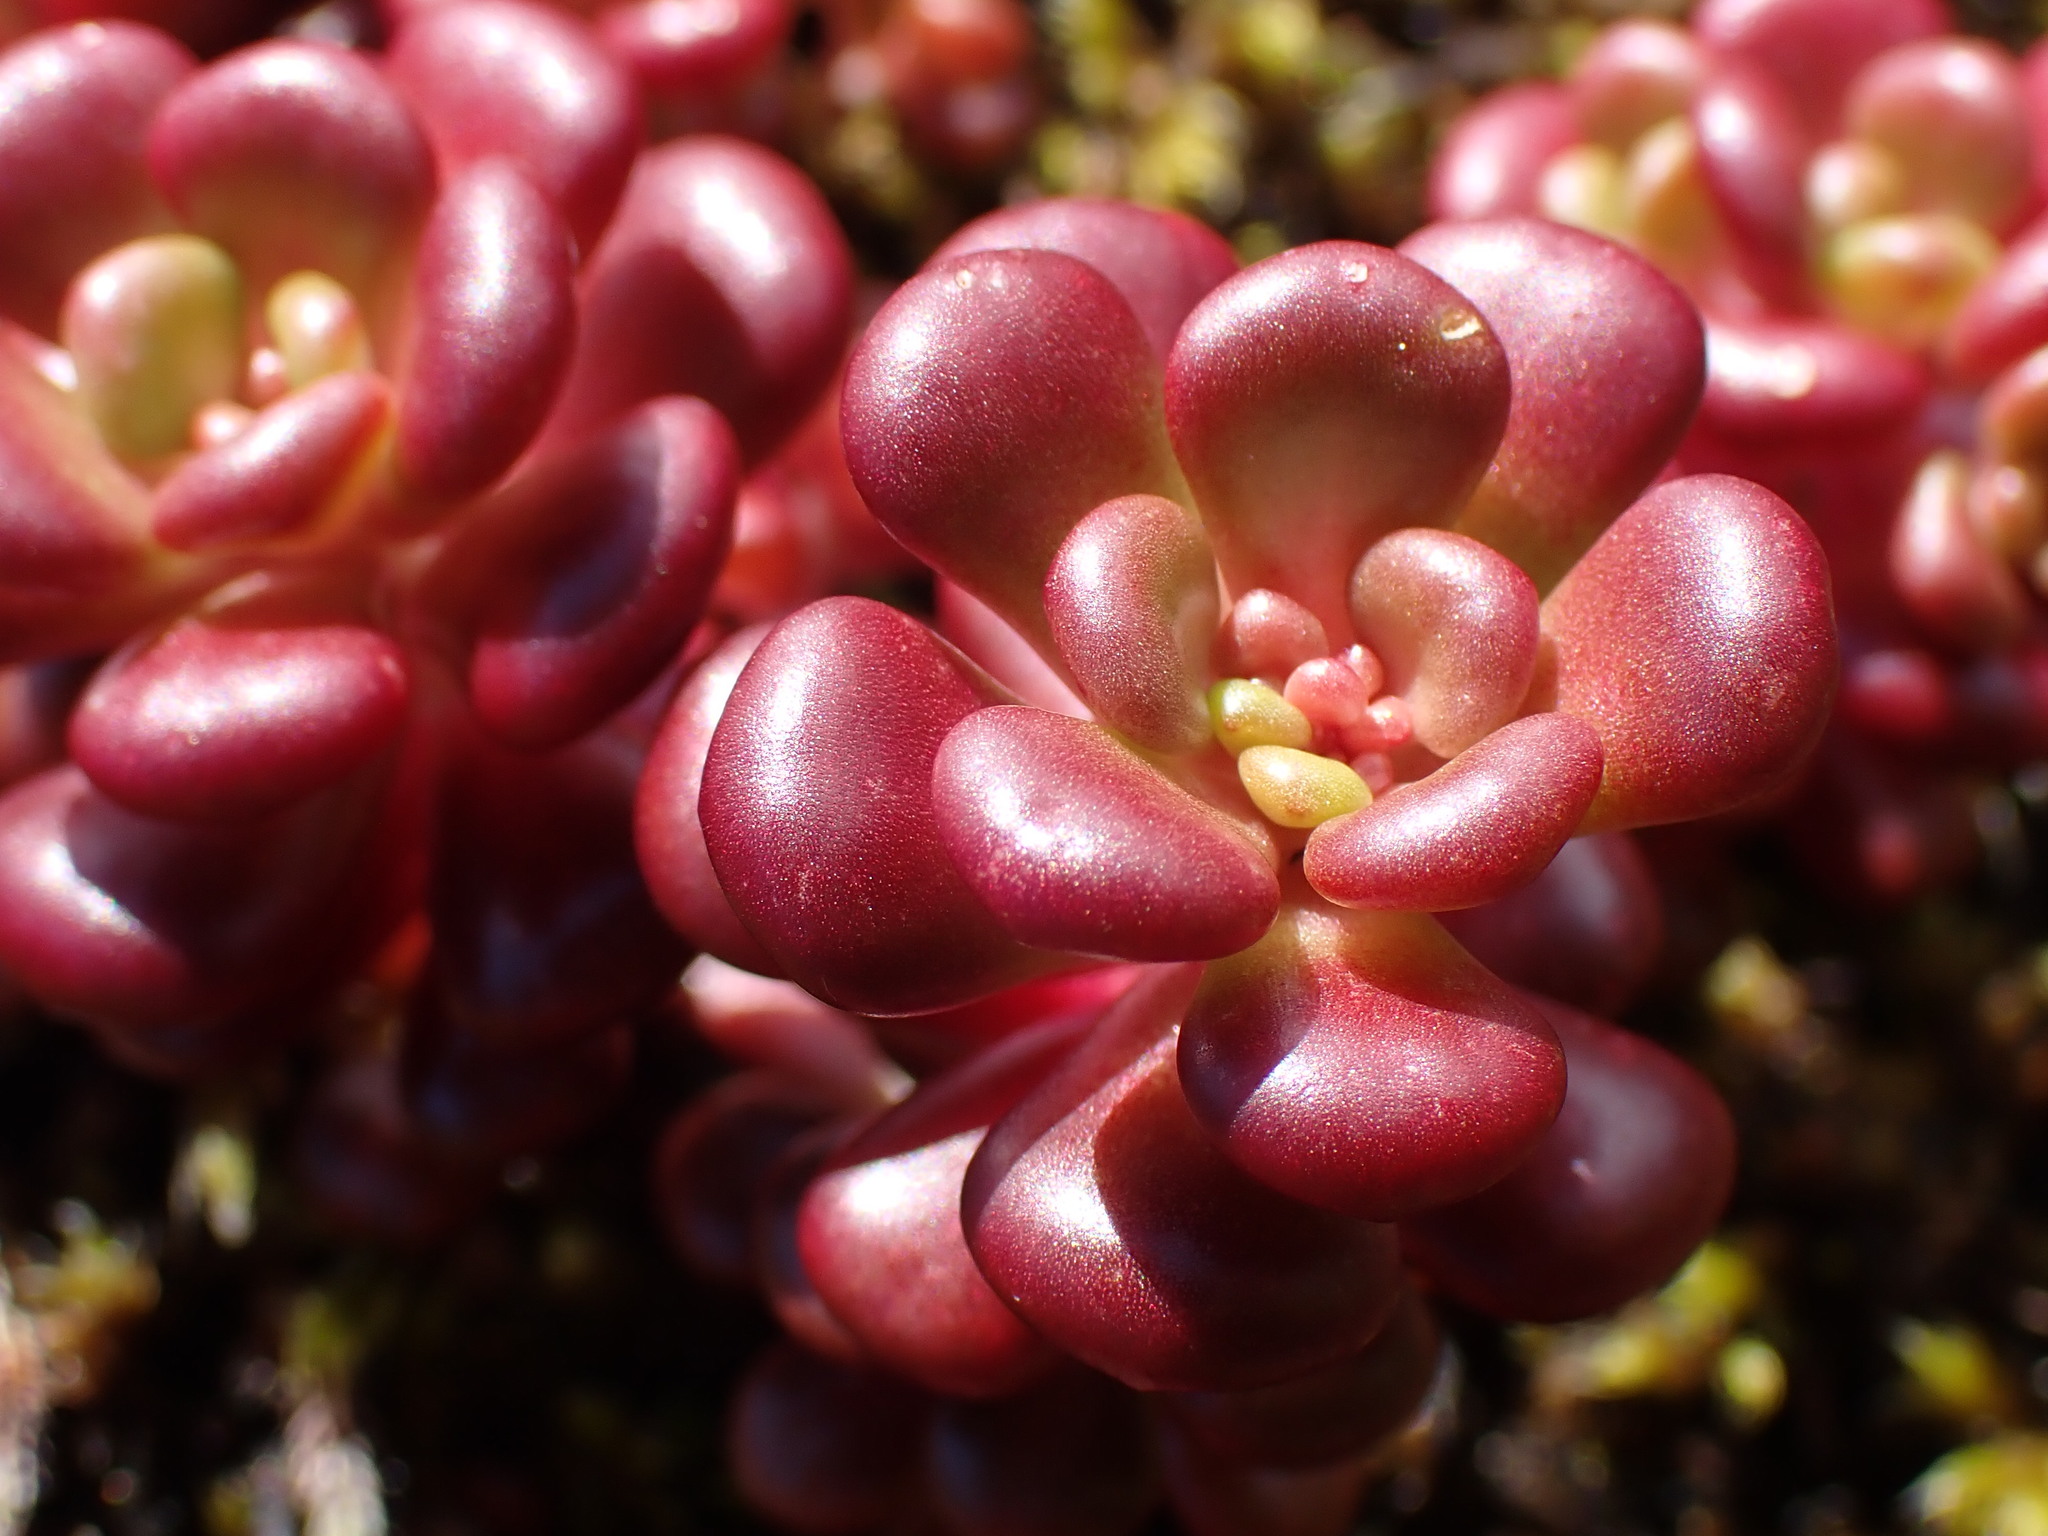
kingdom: Plantae
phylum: Tracheophyta
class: Magnoliopsida
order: Saxifragales
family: Crassulaceae
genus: Sedum
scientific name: Sedum oreganum
